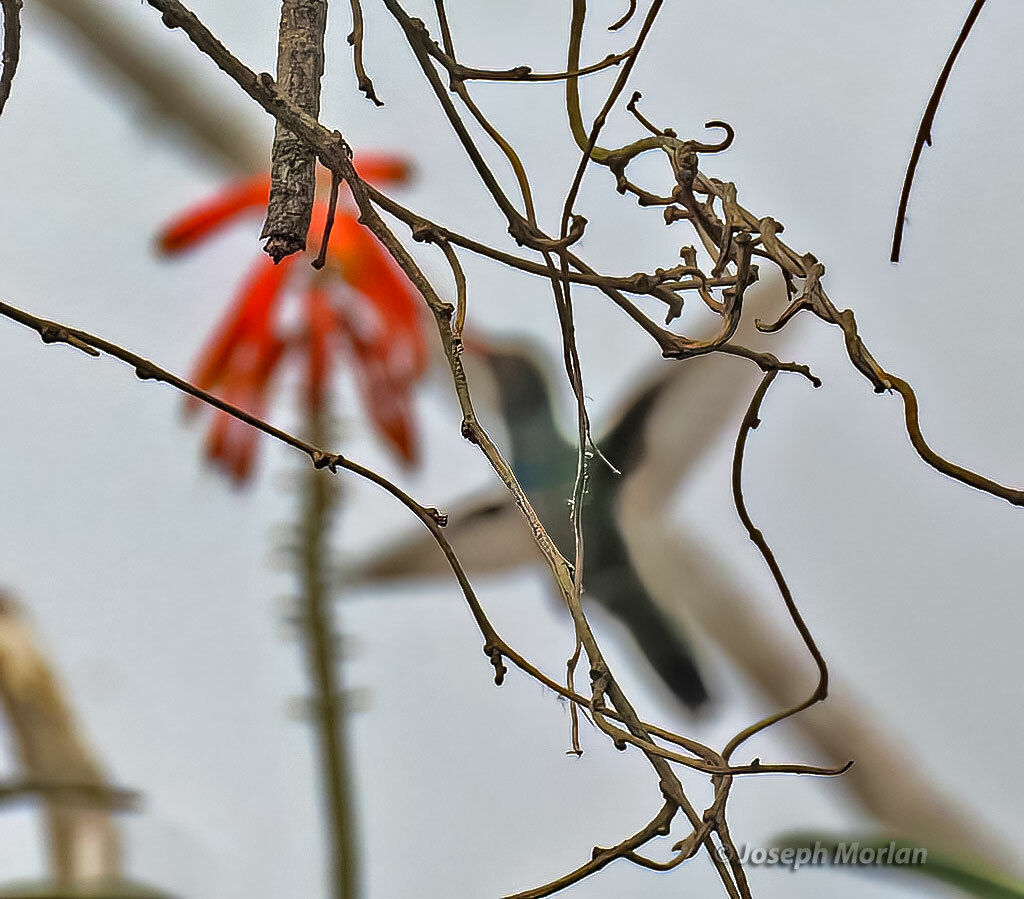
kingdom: Animalia
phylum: Chordata
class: Aves
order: Apodiformes
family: Trochilidae
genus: Chlorostilbon
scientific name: Chlorostilbon lucidus
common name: Glittering-bellied emerald
